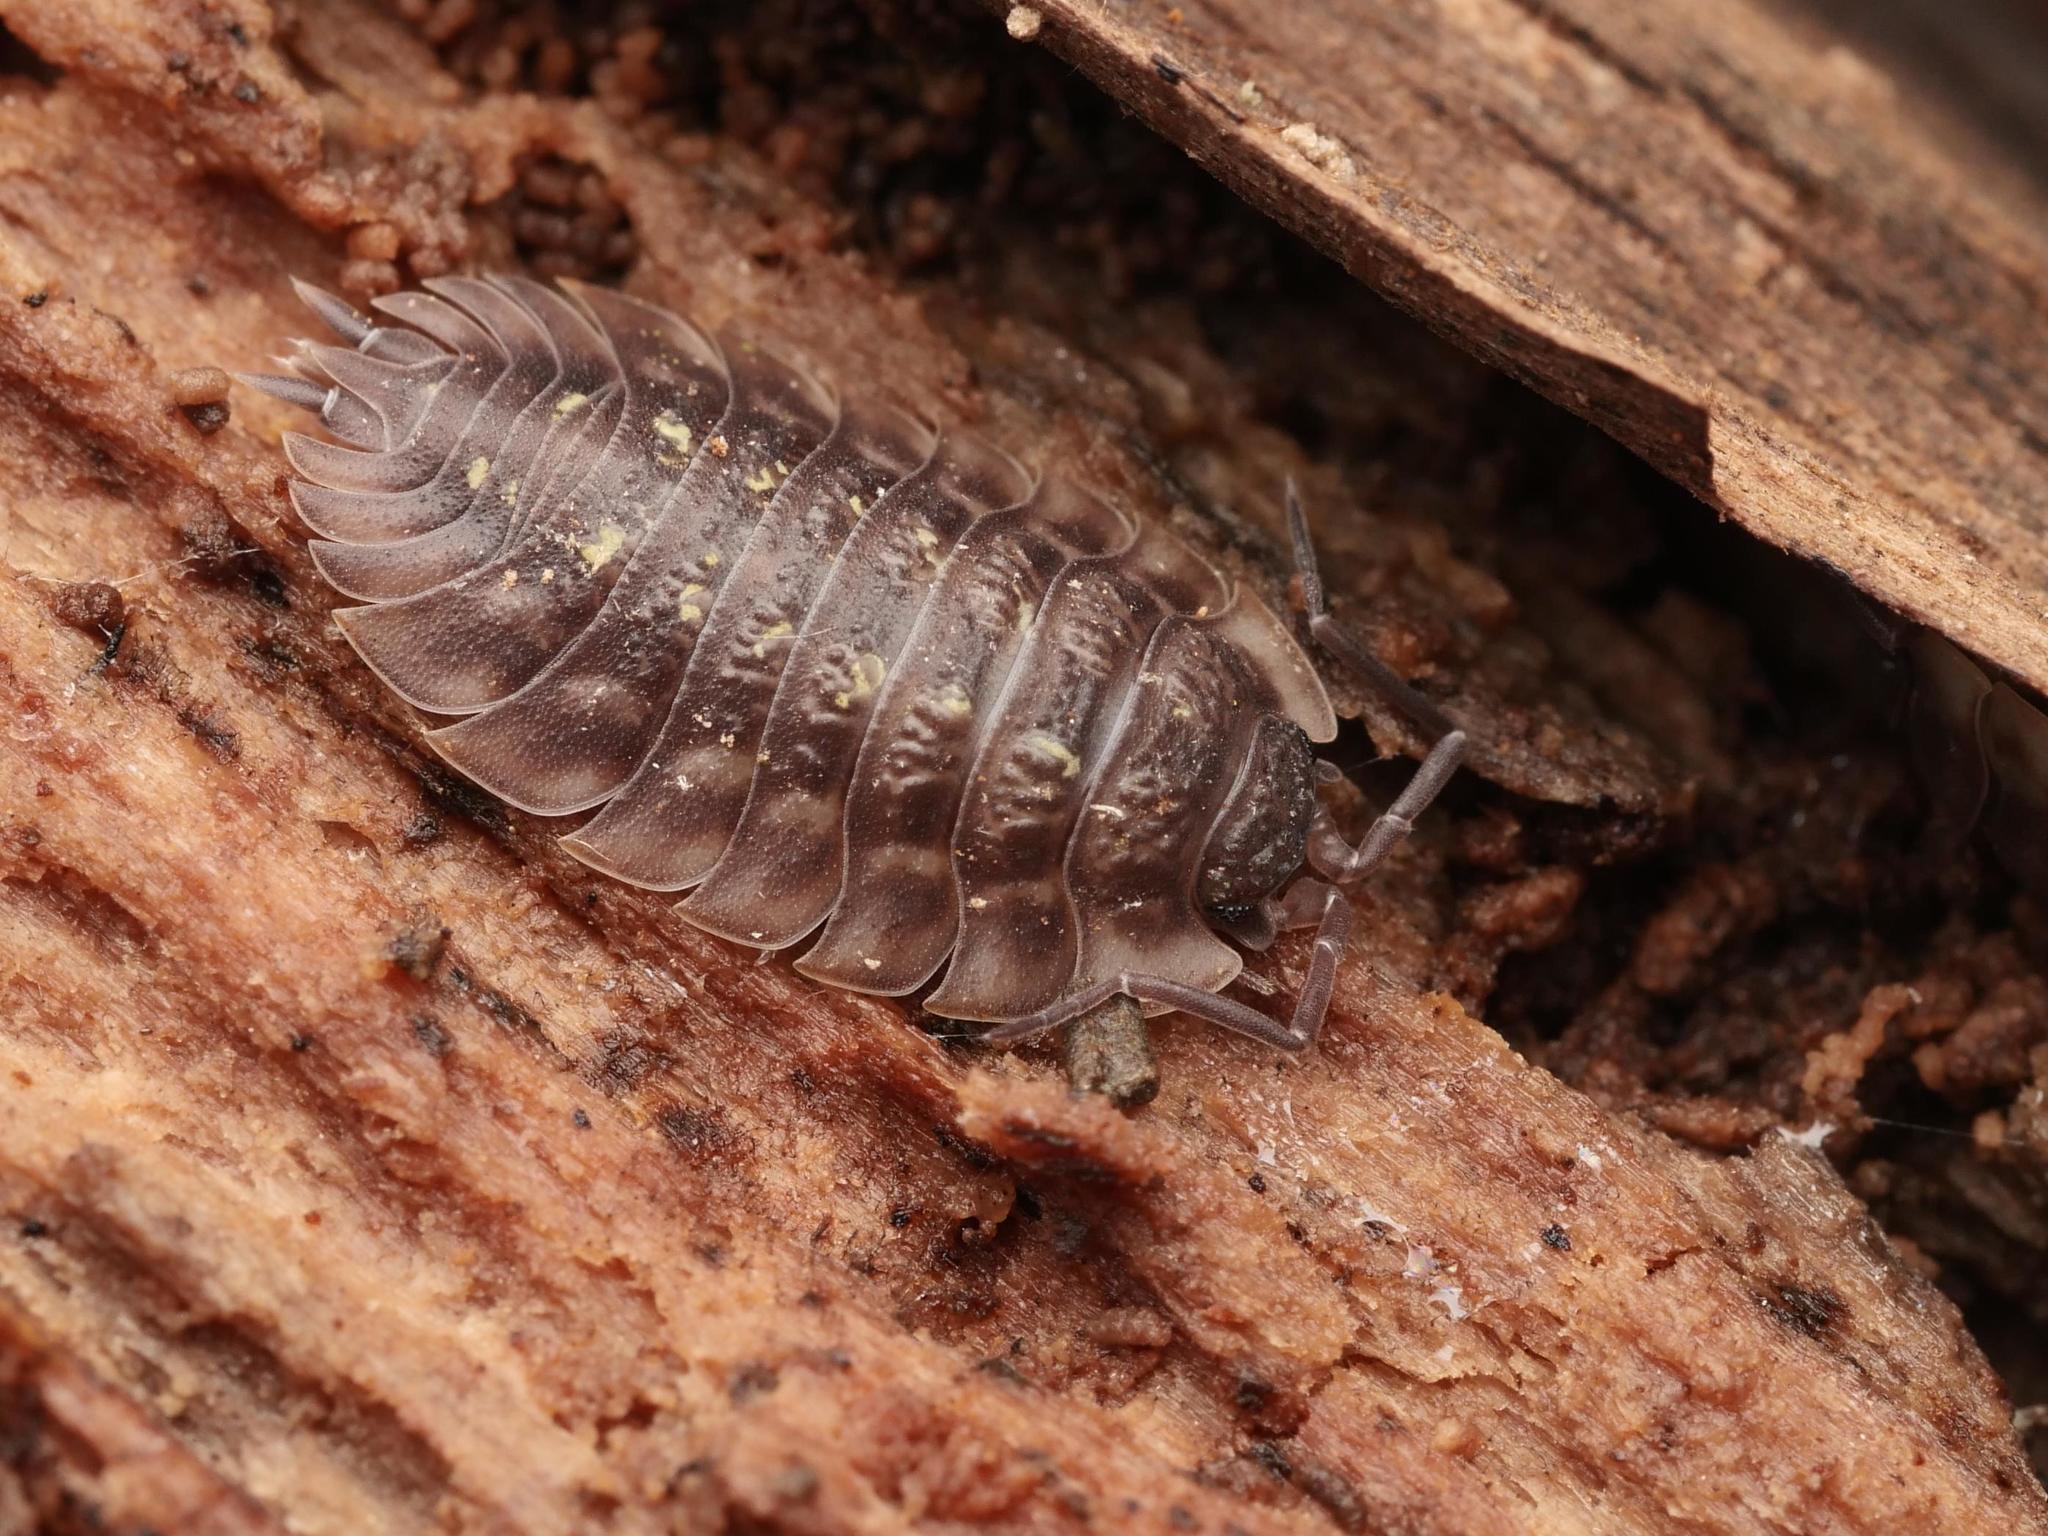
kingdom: Animalia
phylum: Arthropoda
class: Malacostraca
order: Isopoda
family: Oniscidae
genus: Oniscus
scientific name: Oniscus asellus
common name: Common shiny woodlouse
